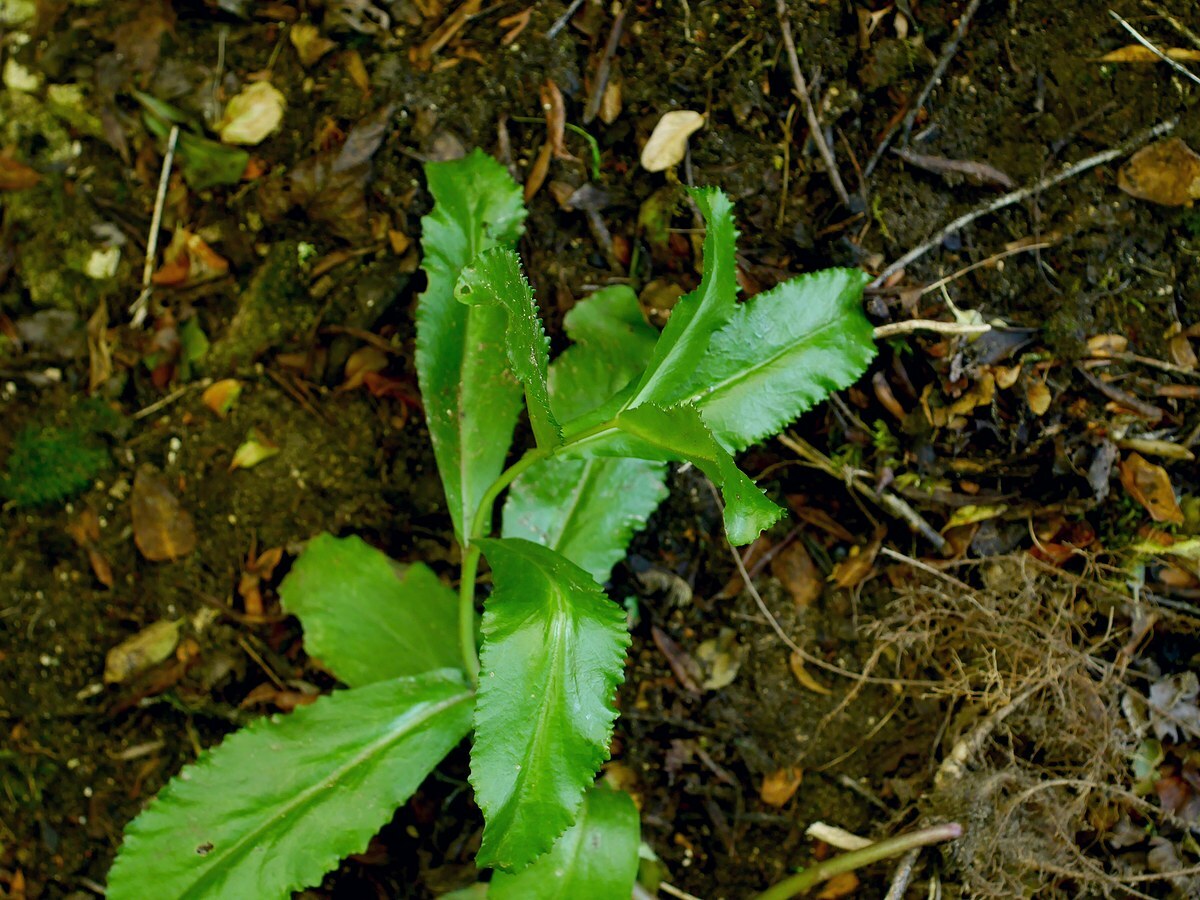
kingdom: Plantae
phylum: Tracheophyta
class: Magnoliopsida
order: Saxifragales
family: Crassulaceae
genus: Hylotelephium
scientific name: Hylotelephium maximum
